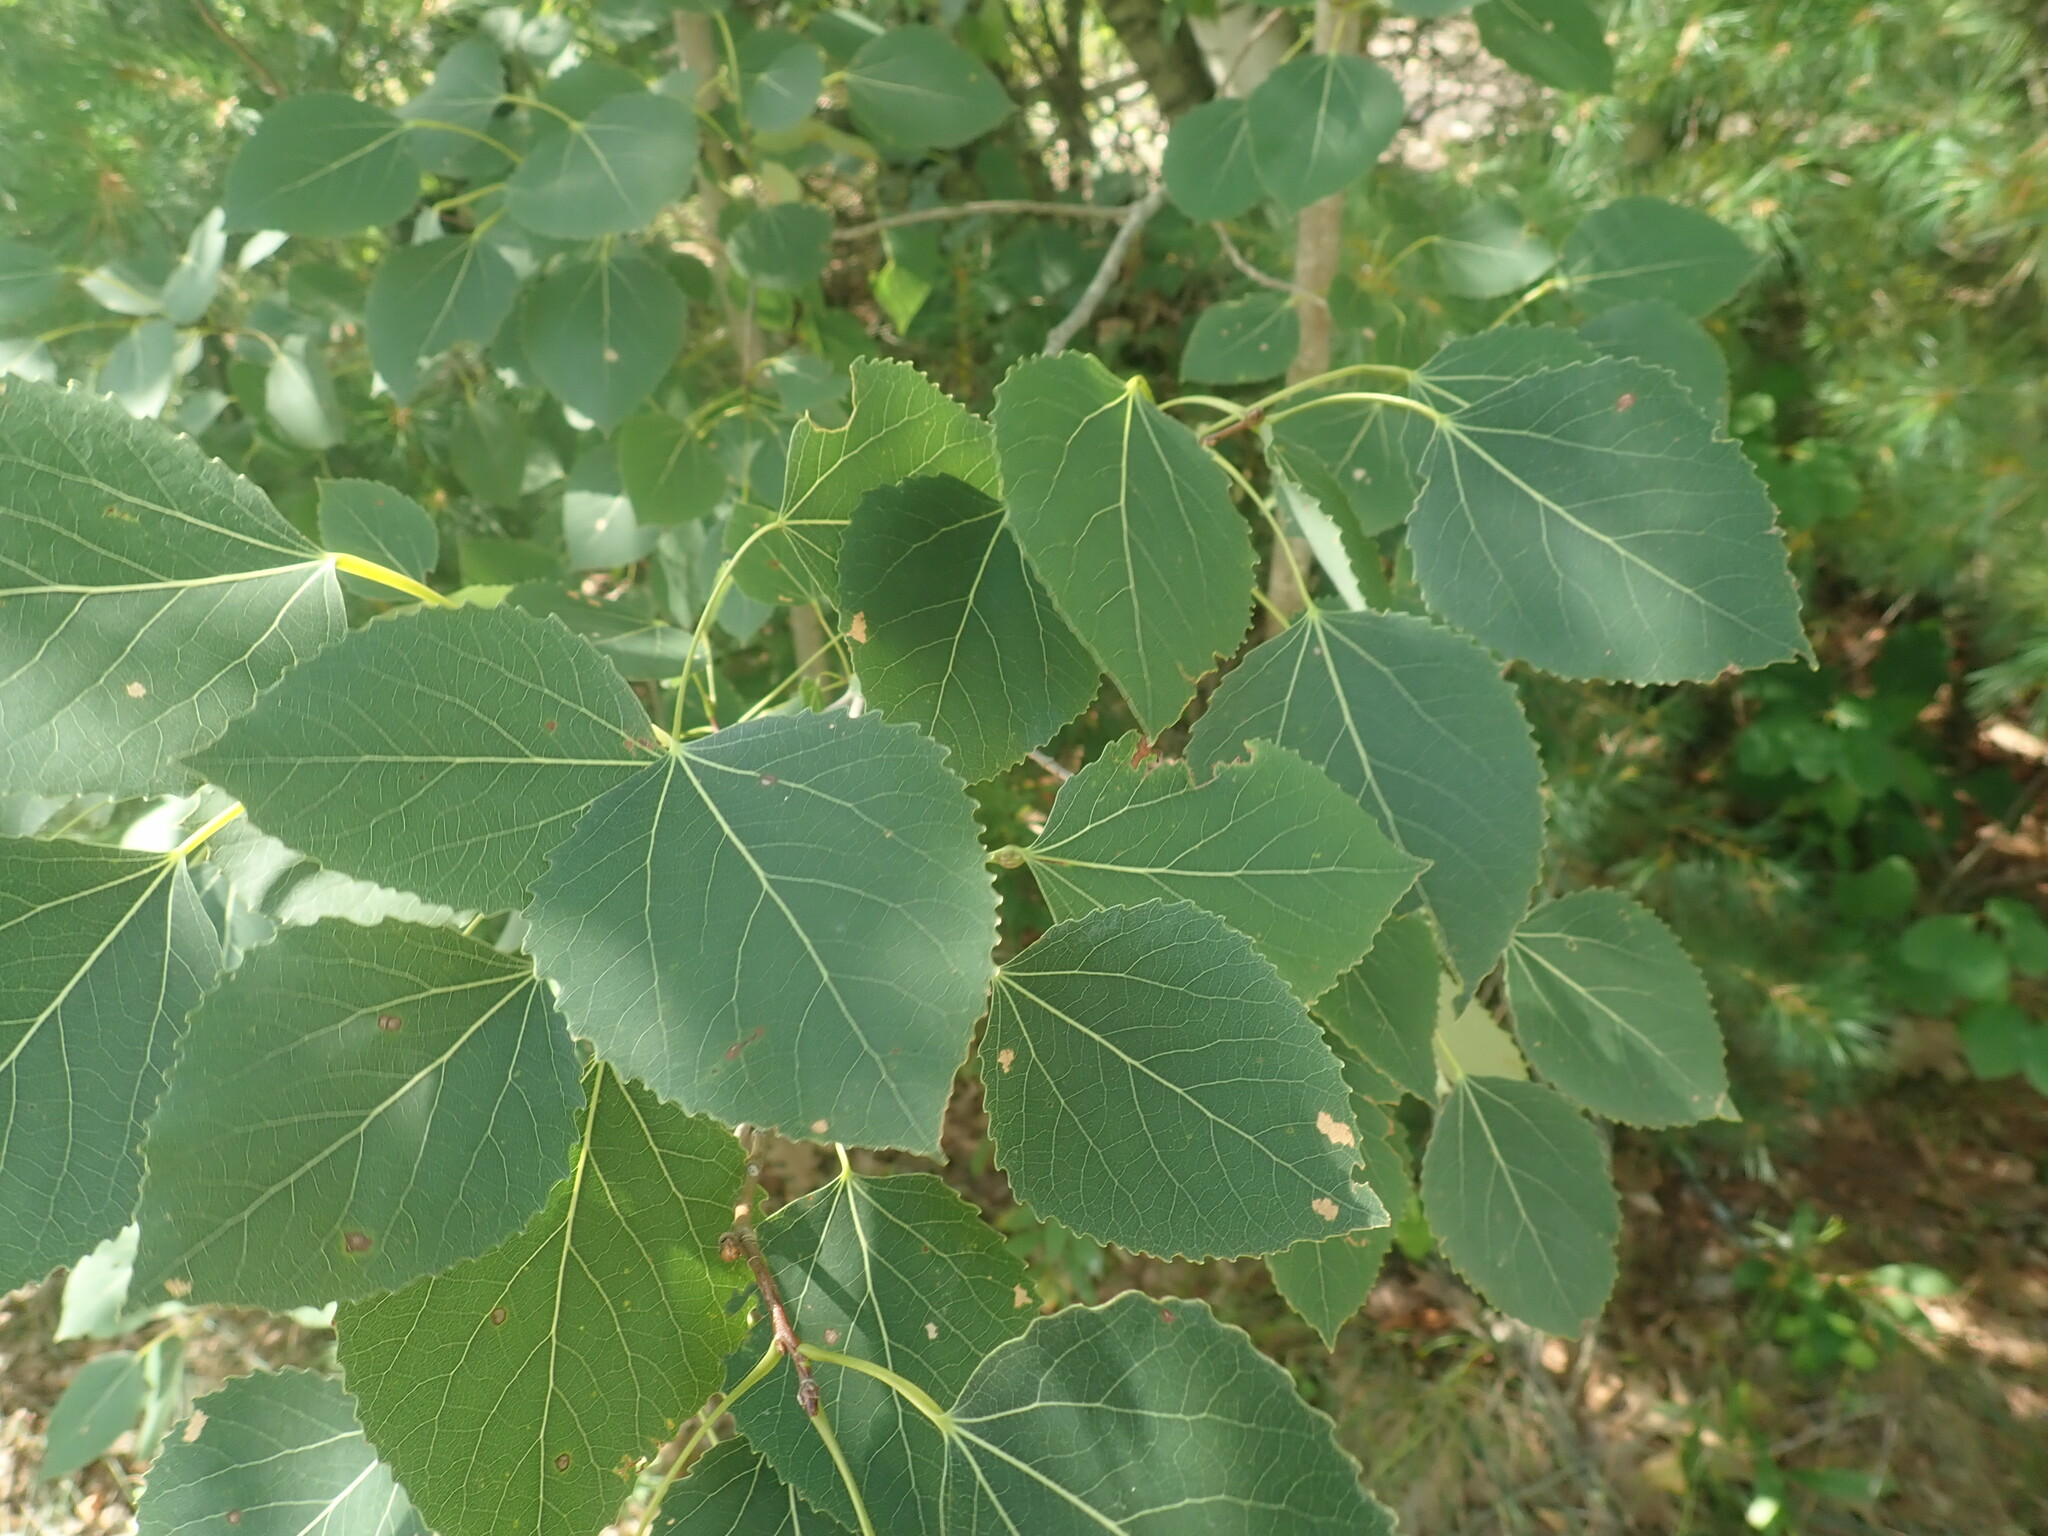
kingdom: Plantae
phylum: Tracheophyta
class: Magnoliopsida
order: Malpighiales
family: Salicaceae
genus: Populus
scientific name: Populus tremuloides
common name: Quaking aspen
